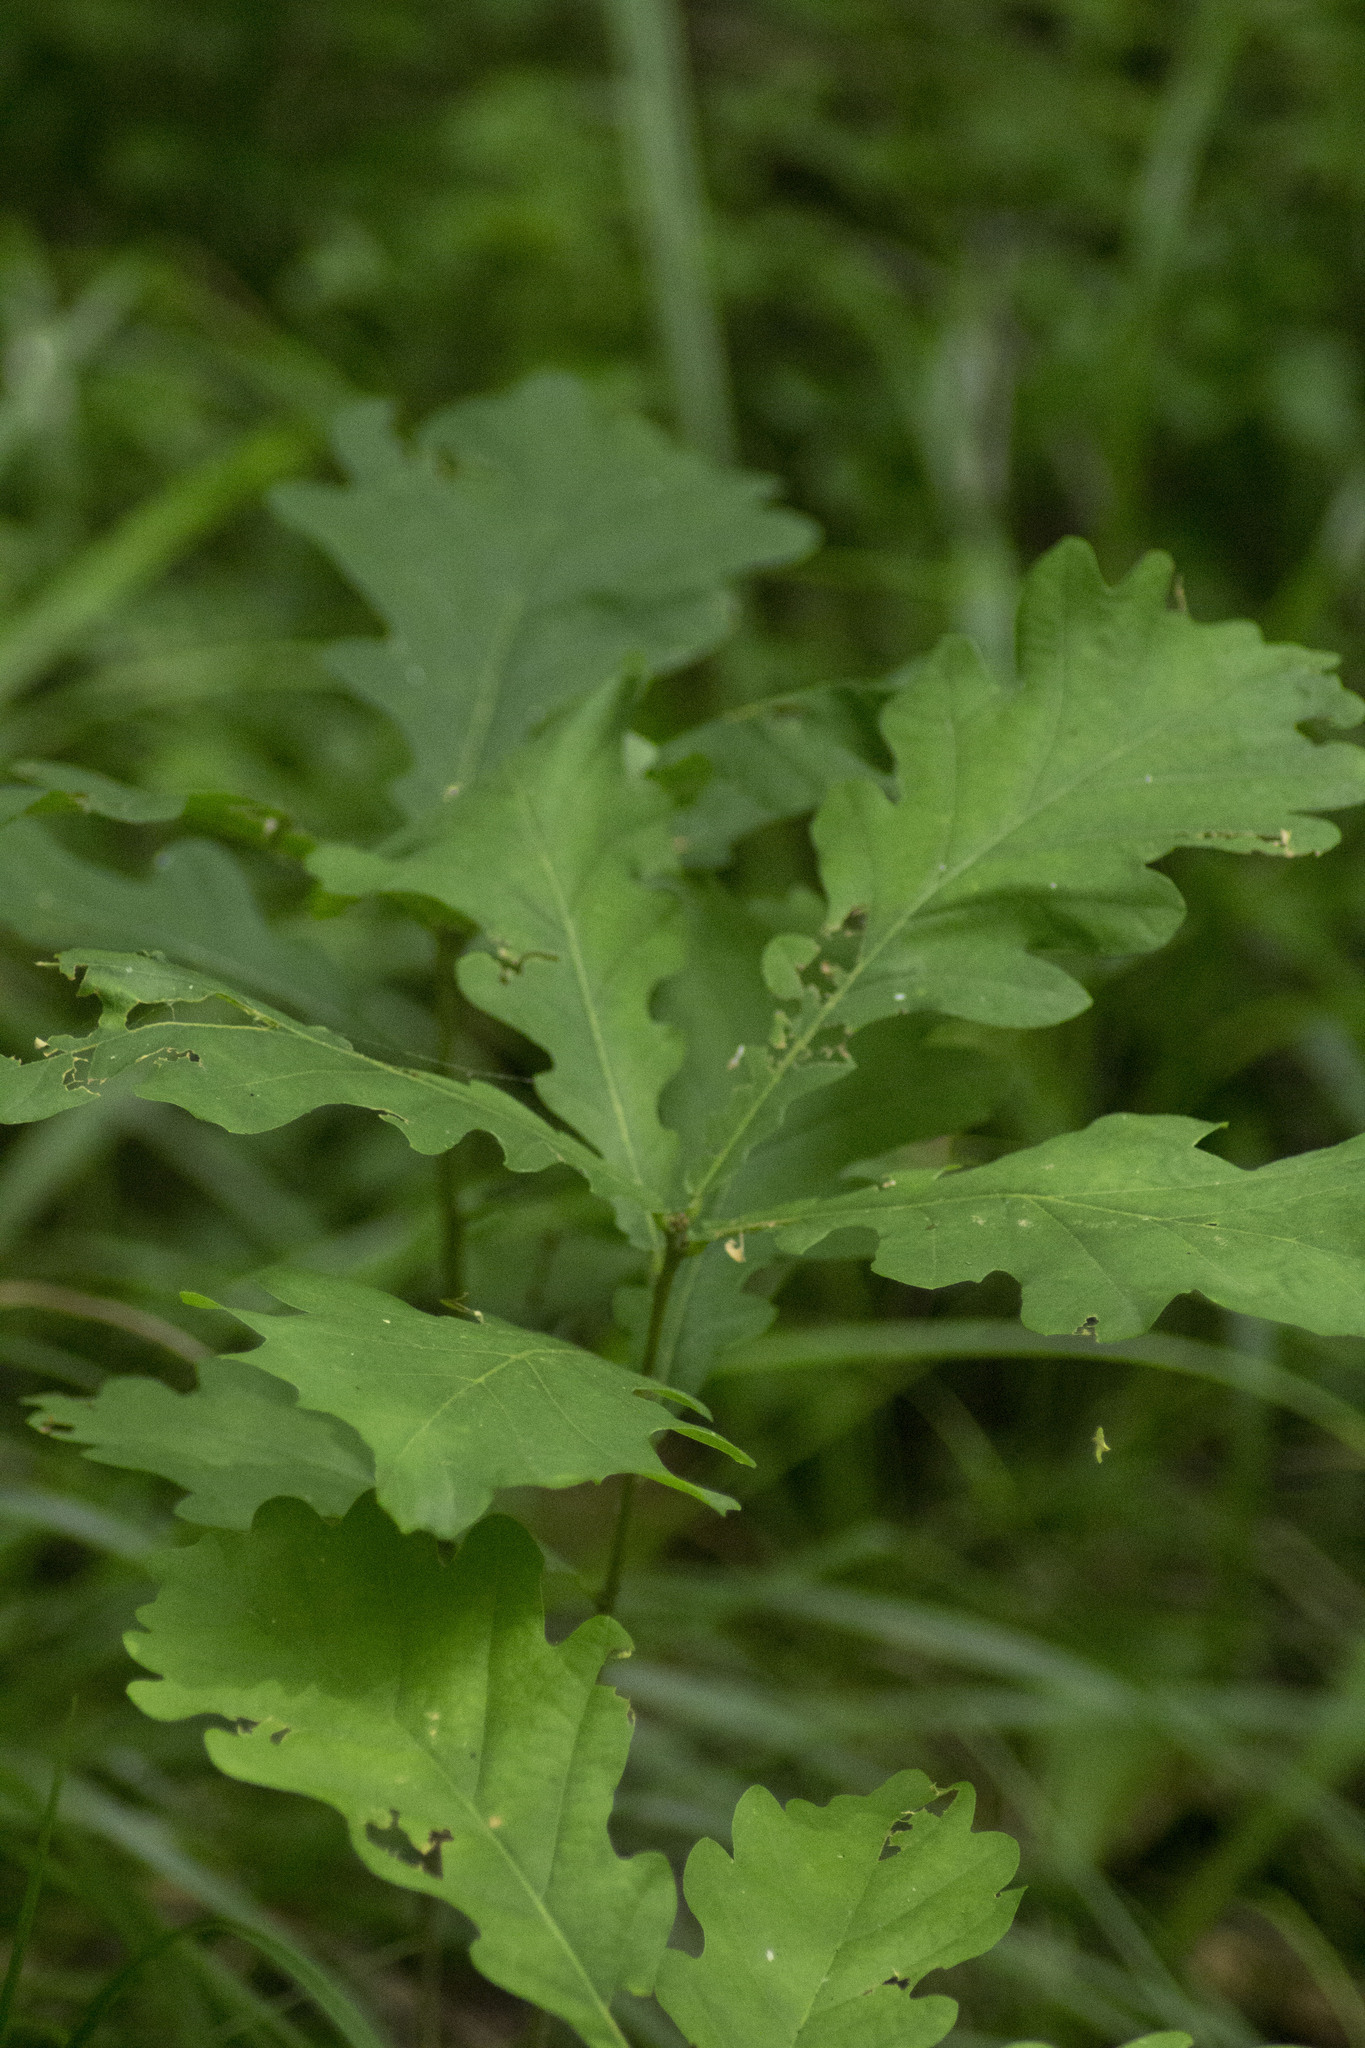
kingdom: Plantae
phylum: Tracheophyta
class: Magnoliopsida
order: Fagales
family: Fagaceae
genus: Quercus
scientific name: Quercus robur
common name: Pedunculate oak
